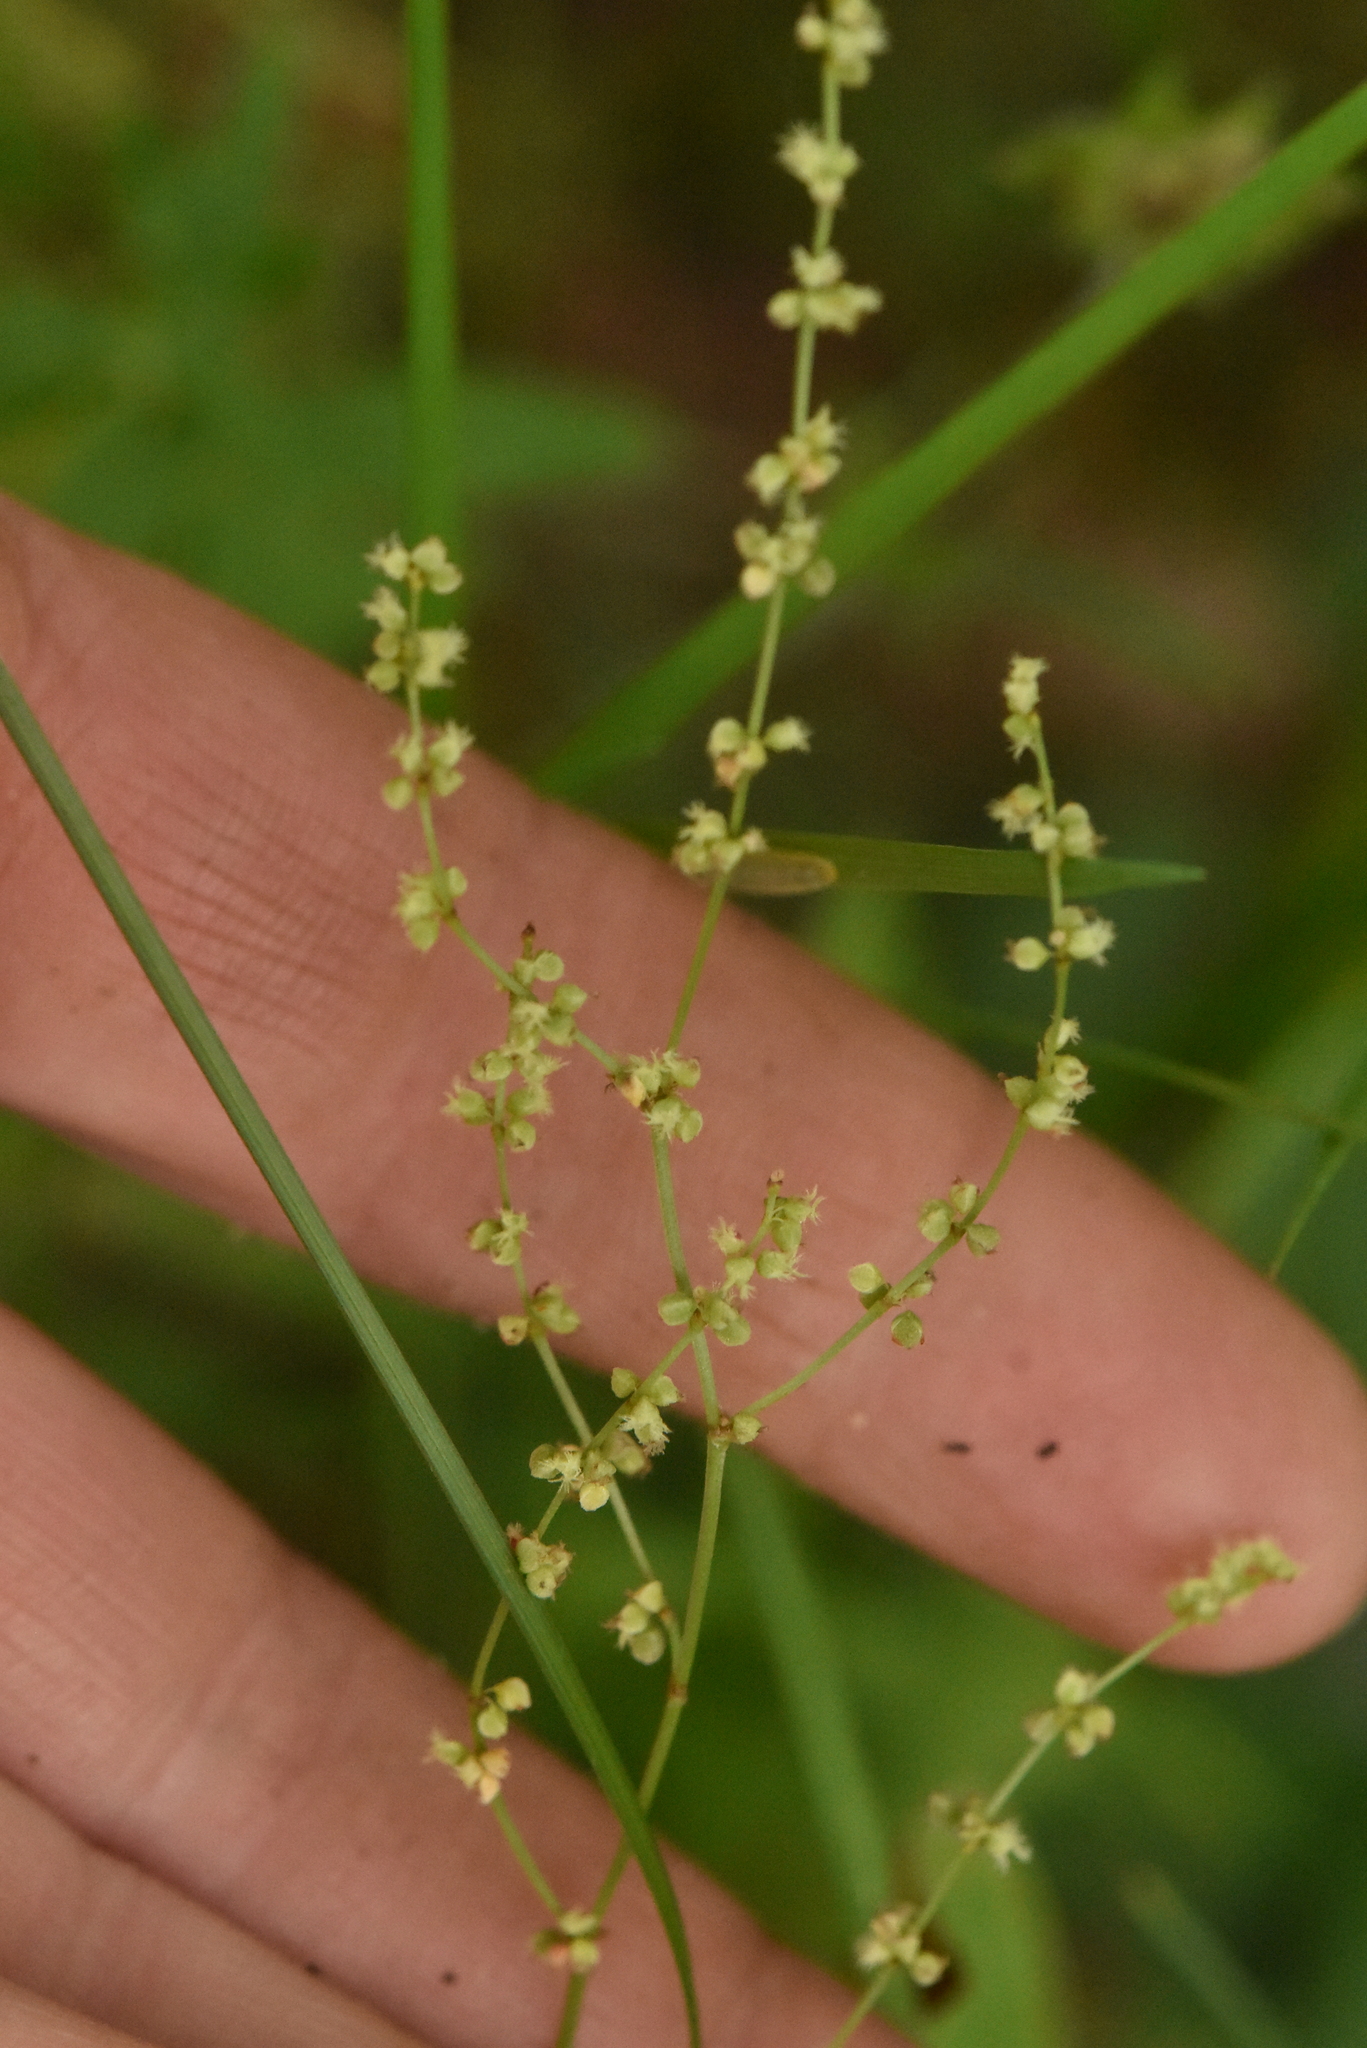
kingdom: Plantae
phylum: Tracheophyta
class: Magnoliopsida
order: Caryophyllales
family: Polygonaceae
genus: Rumex
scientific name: Rumex acetosella
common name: Common sheep sorrel
